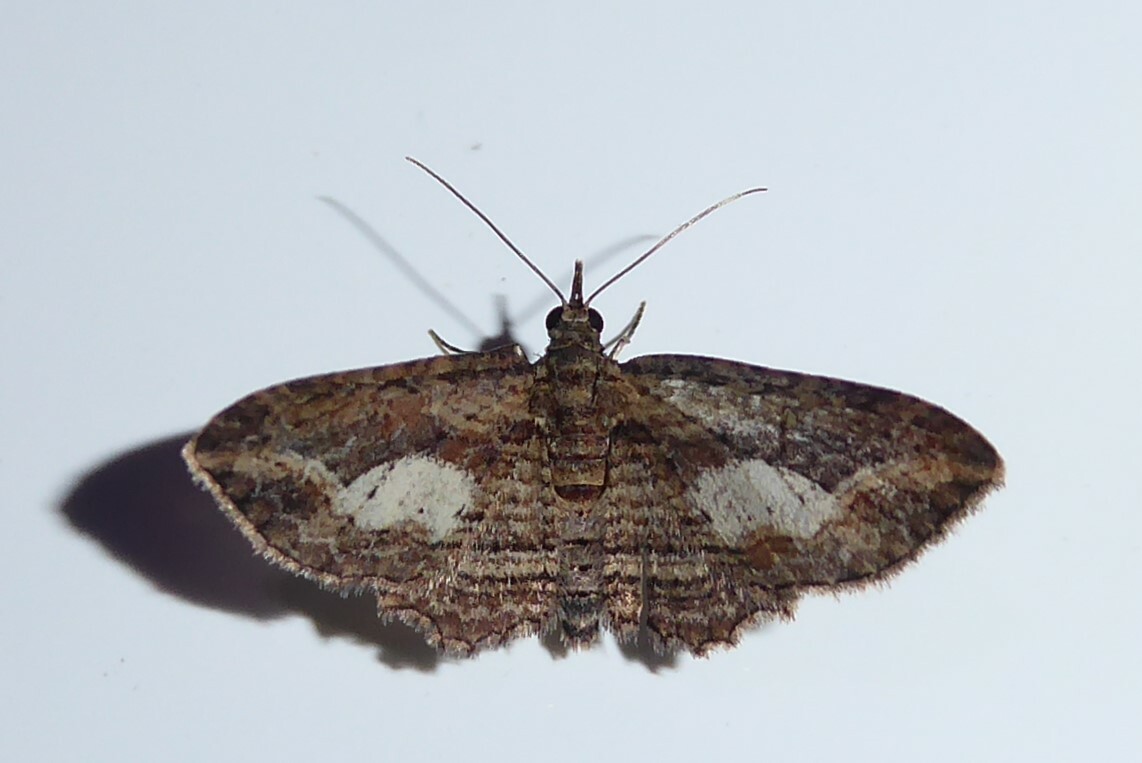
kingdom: Animalia
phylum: Arthropoda
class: Insecta
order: Lepidoptera
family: Geometridae
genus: Chloroclystis
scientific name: Chloroclystis filata
